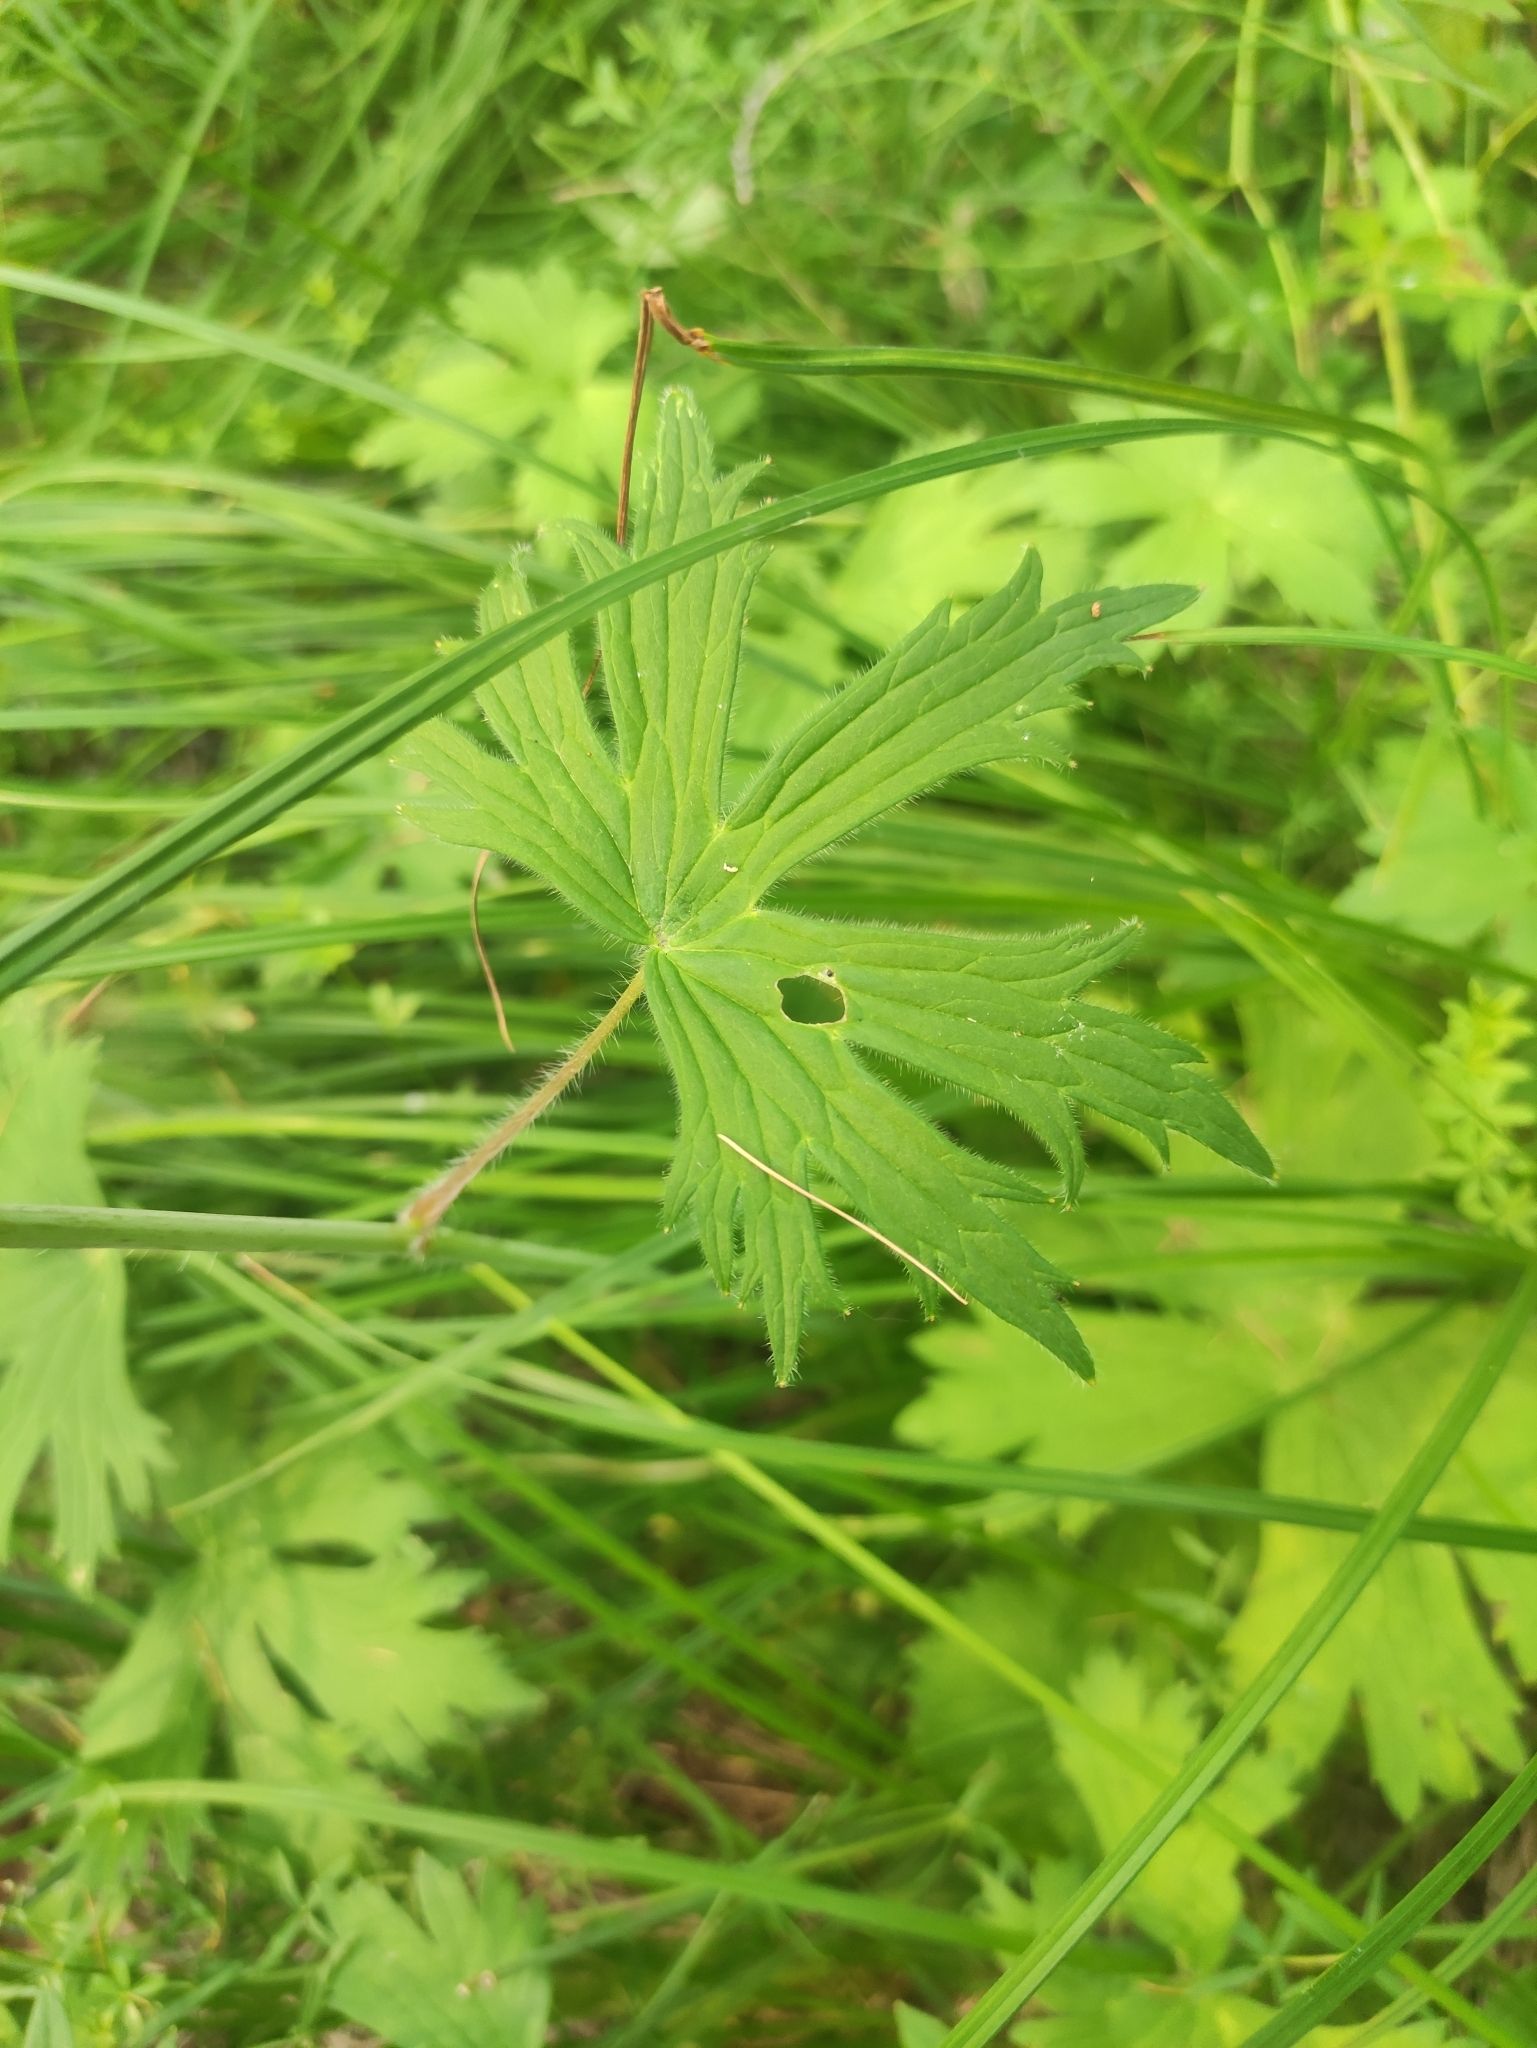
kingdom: Plantae
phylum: Tracheophyta
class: Magnoliopsida
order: Ranunculales
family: Ranunculaceae
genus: Delphinium
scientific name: Delphinium crassifolium
